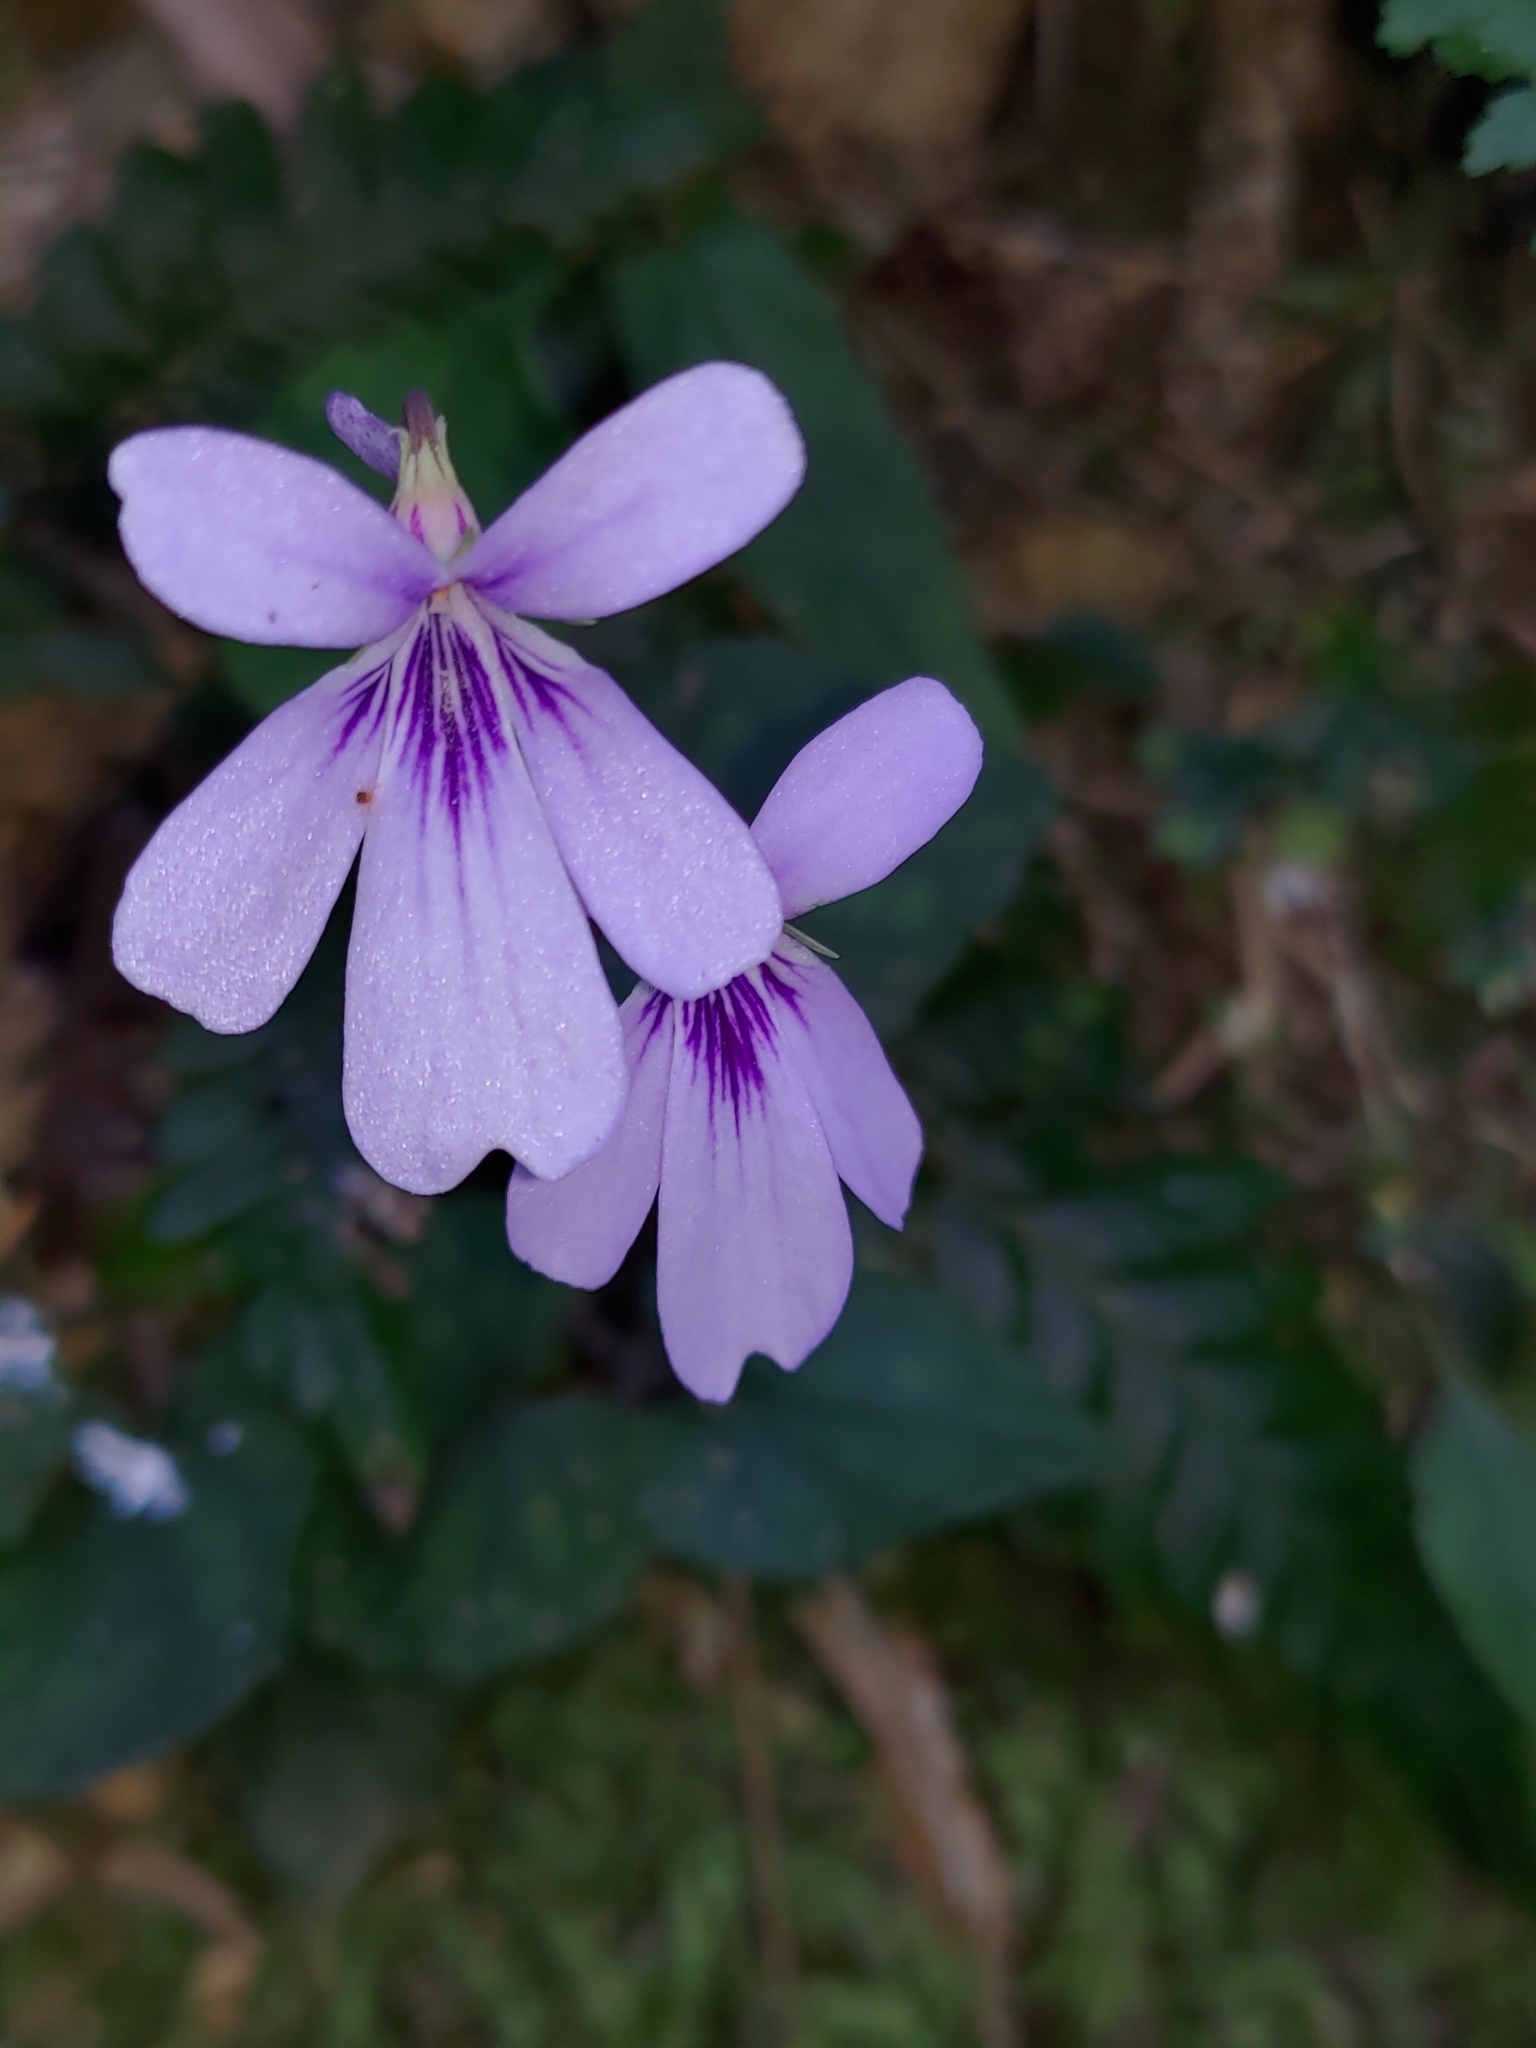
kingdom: Plantae
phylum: Tracheophyta
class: Magnoliopsida
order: Malpighiales
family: Violaceae
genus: Viola
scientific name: Viola formosana
